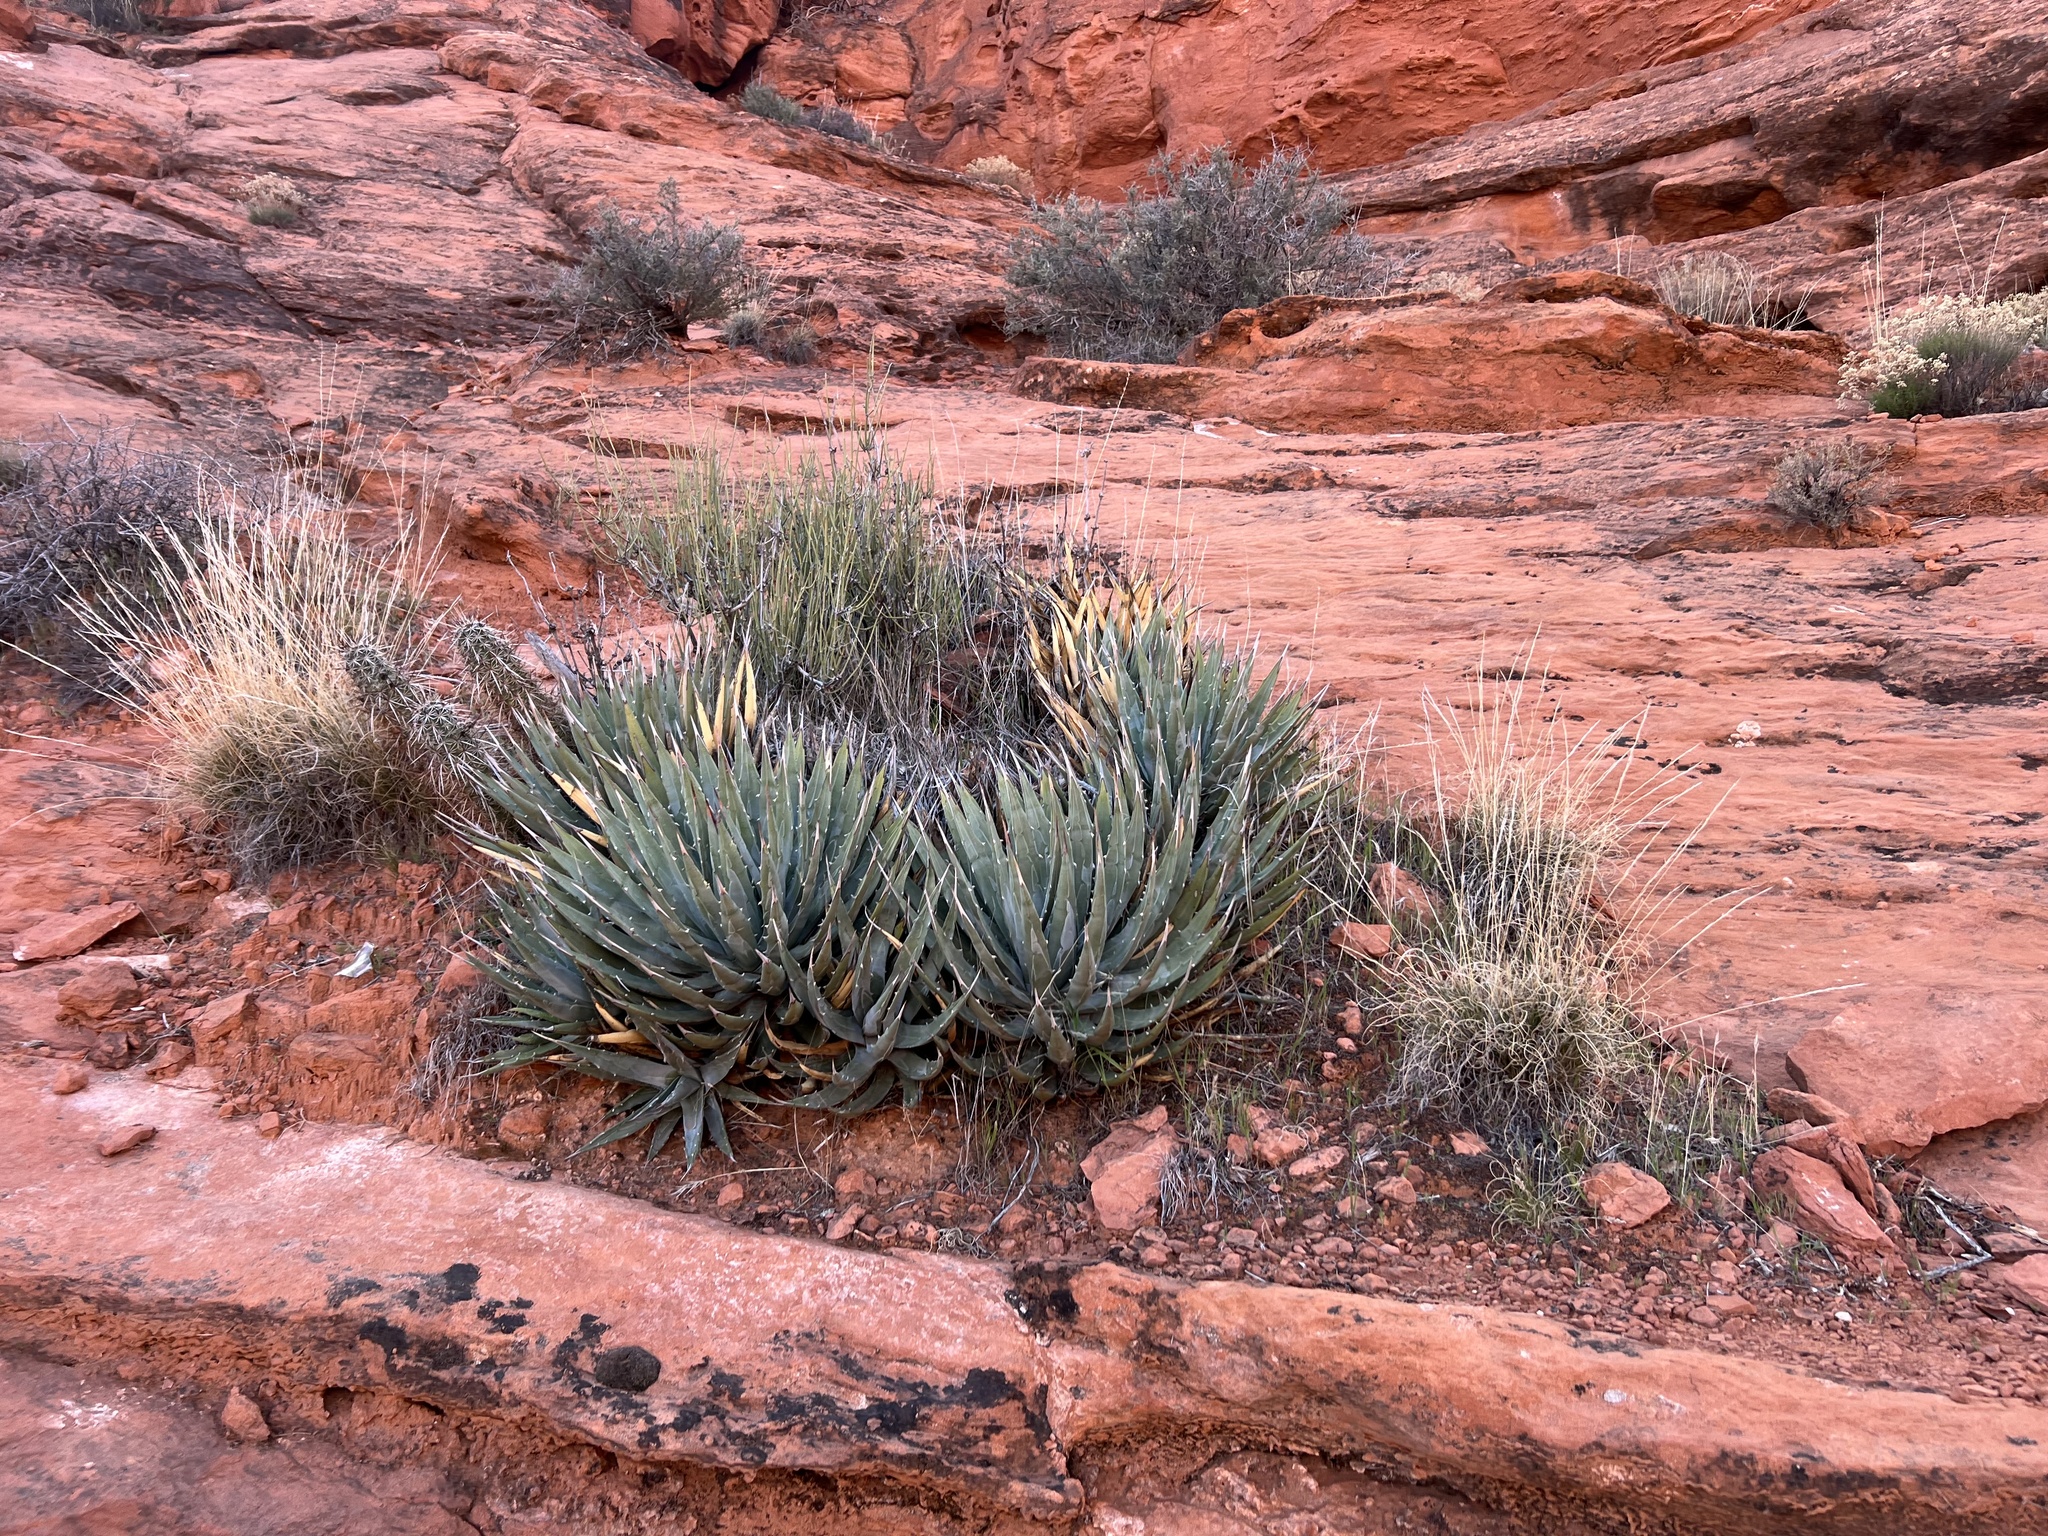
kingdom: Plantae
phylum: Tracheophyta
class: Liliopsida
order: Asparagales
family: Asparagaceae
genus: Agave
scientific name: Agave utahensis
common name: Utah agave
